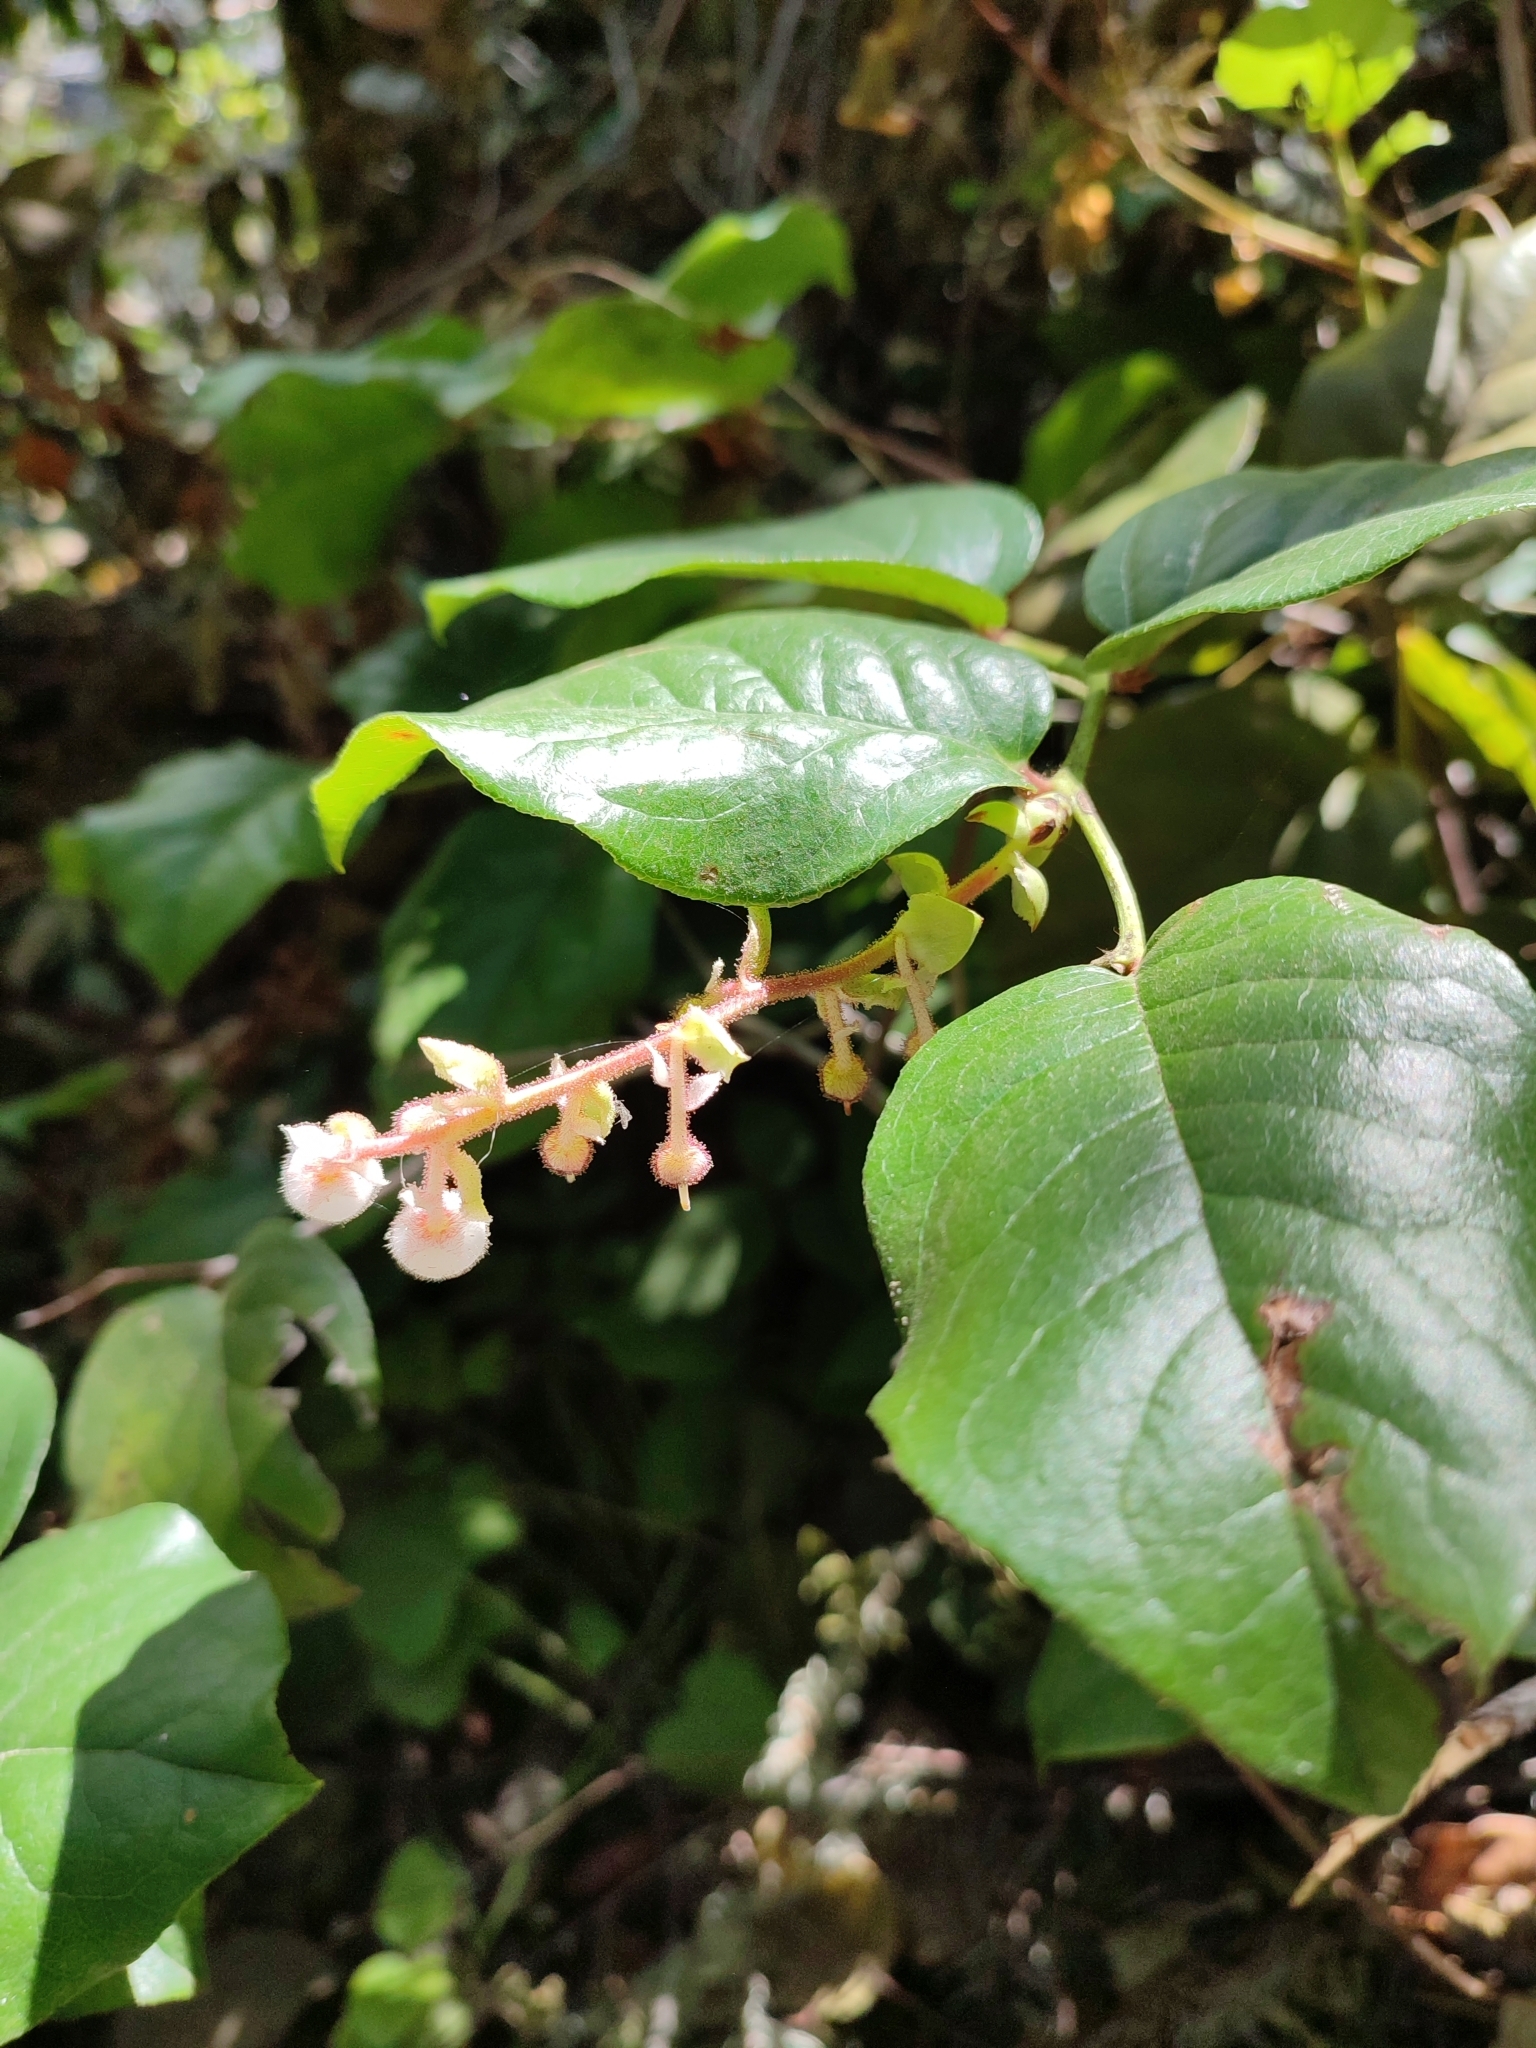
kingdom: Plantae
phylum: Tracheophyta
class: Magnoliopsida
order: Ericales
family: Ericaceae
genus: Gaultheria
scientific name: Gaultheria shallon
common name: Shallon
